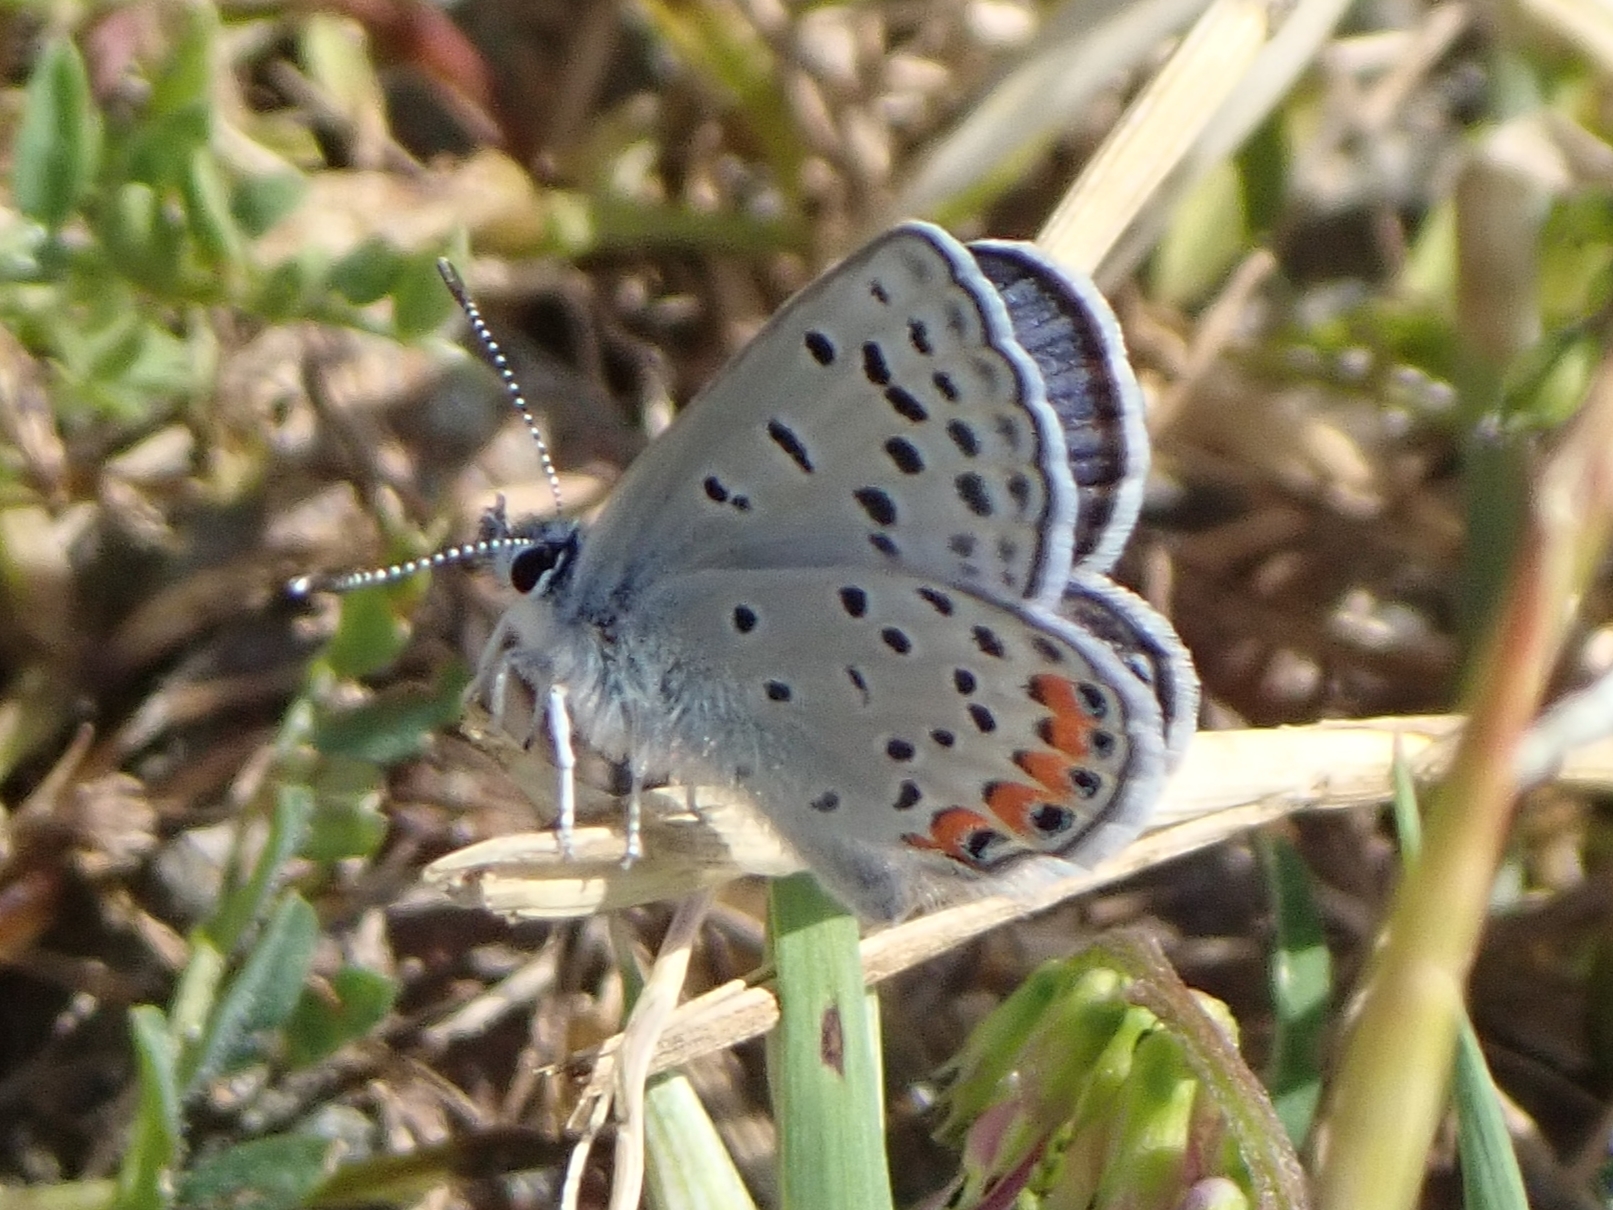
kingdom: Animalia
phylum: Arthropoda
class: Insecta
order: Lepidoptera
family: Lycaenidae
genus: Icaricia
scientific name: Icaricia acmon
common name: Acmon blue
